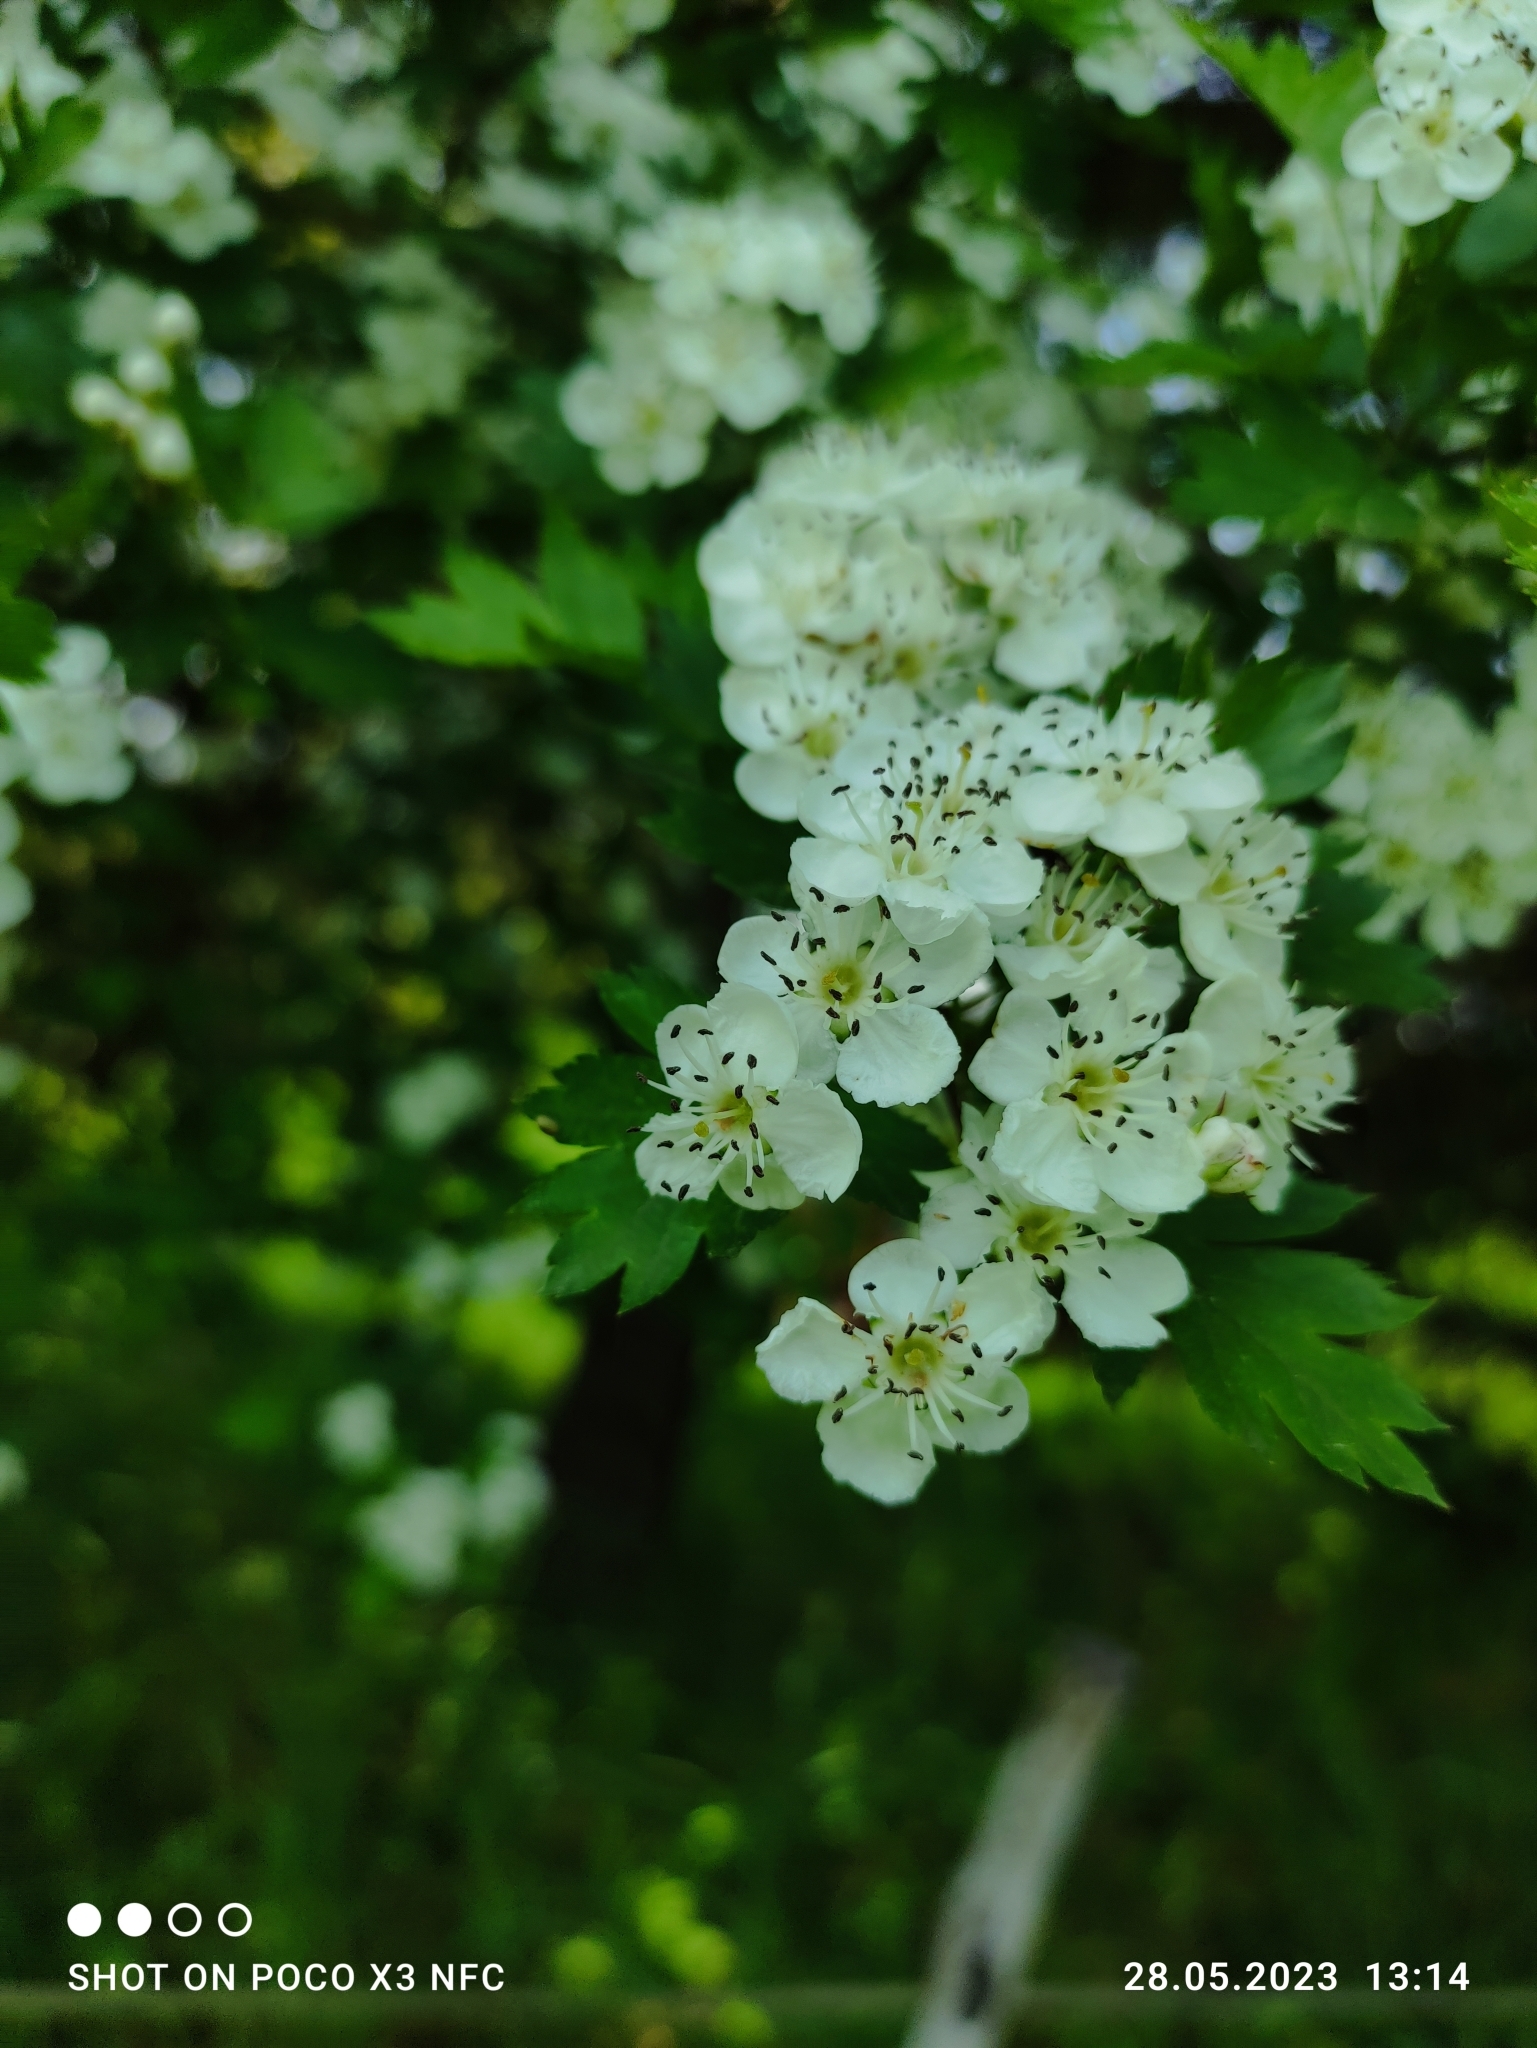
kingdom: Plantae
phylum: Tracheophyta
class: Magnoliopsida
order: Rosales
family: Rosaceae
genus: Crataegus
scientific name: Crataegus monogyna
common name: Hawthorn
